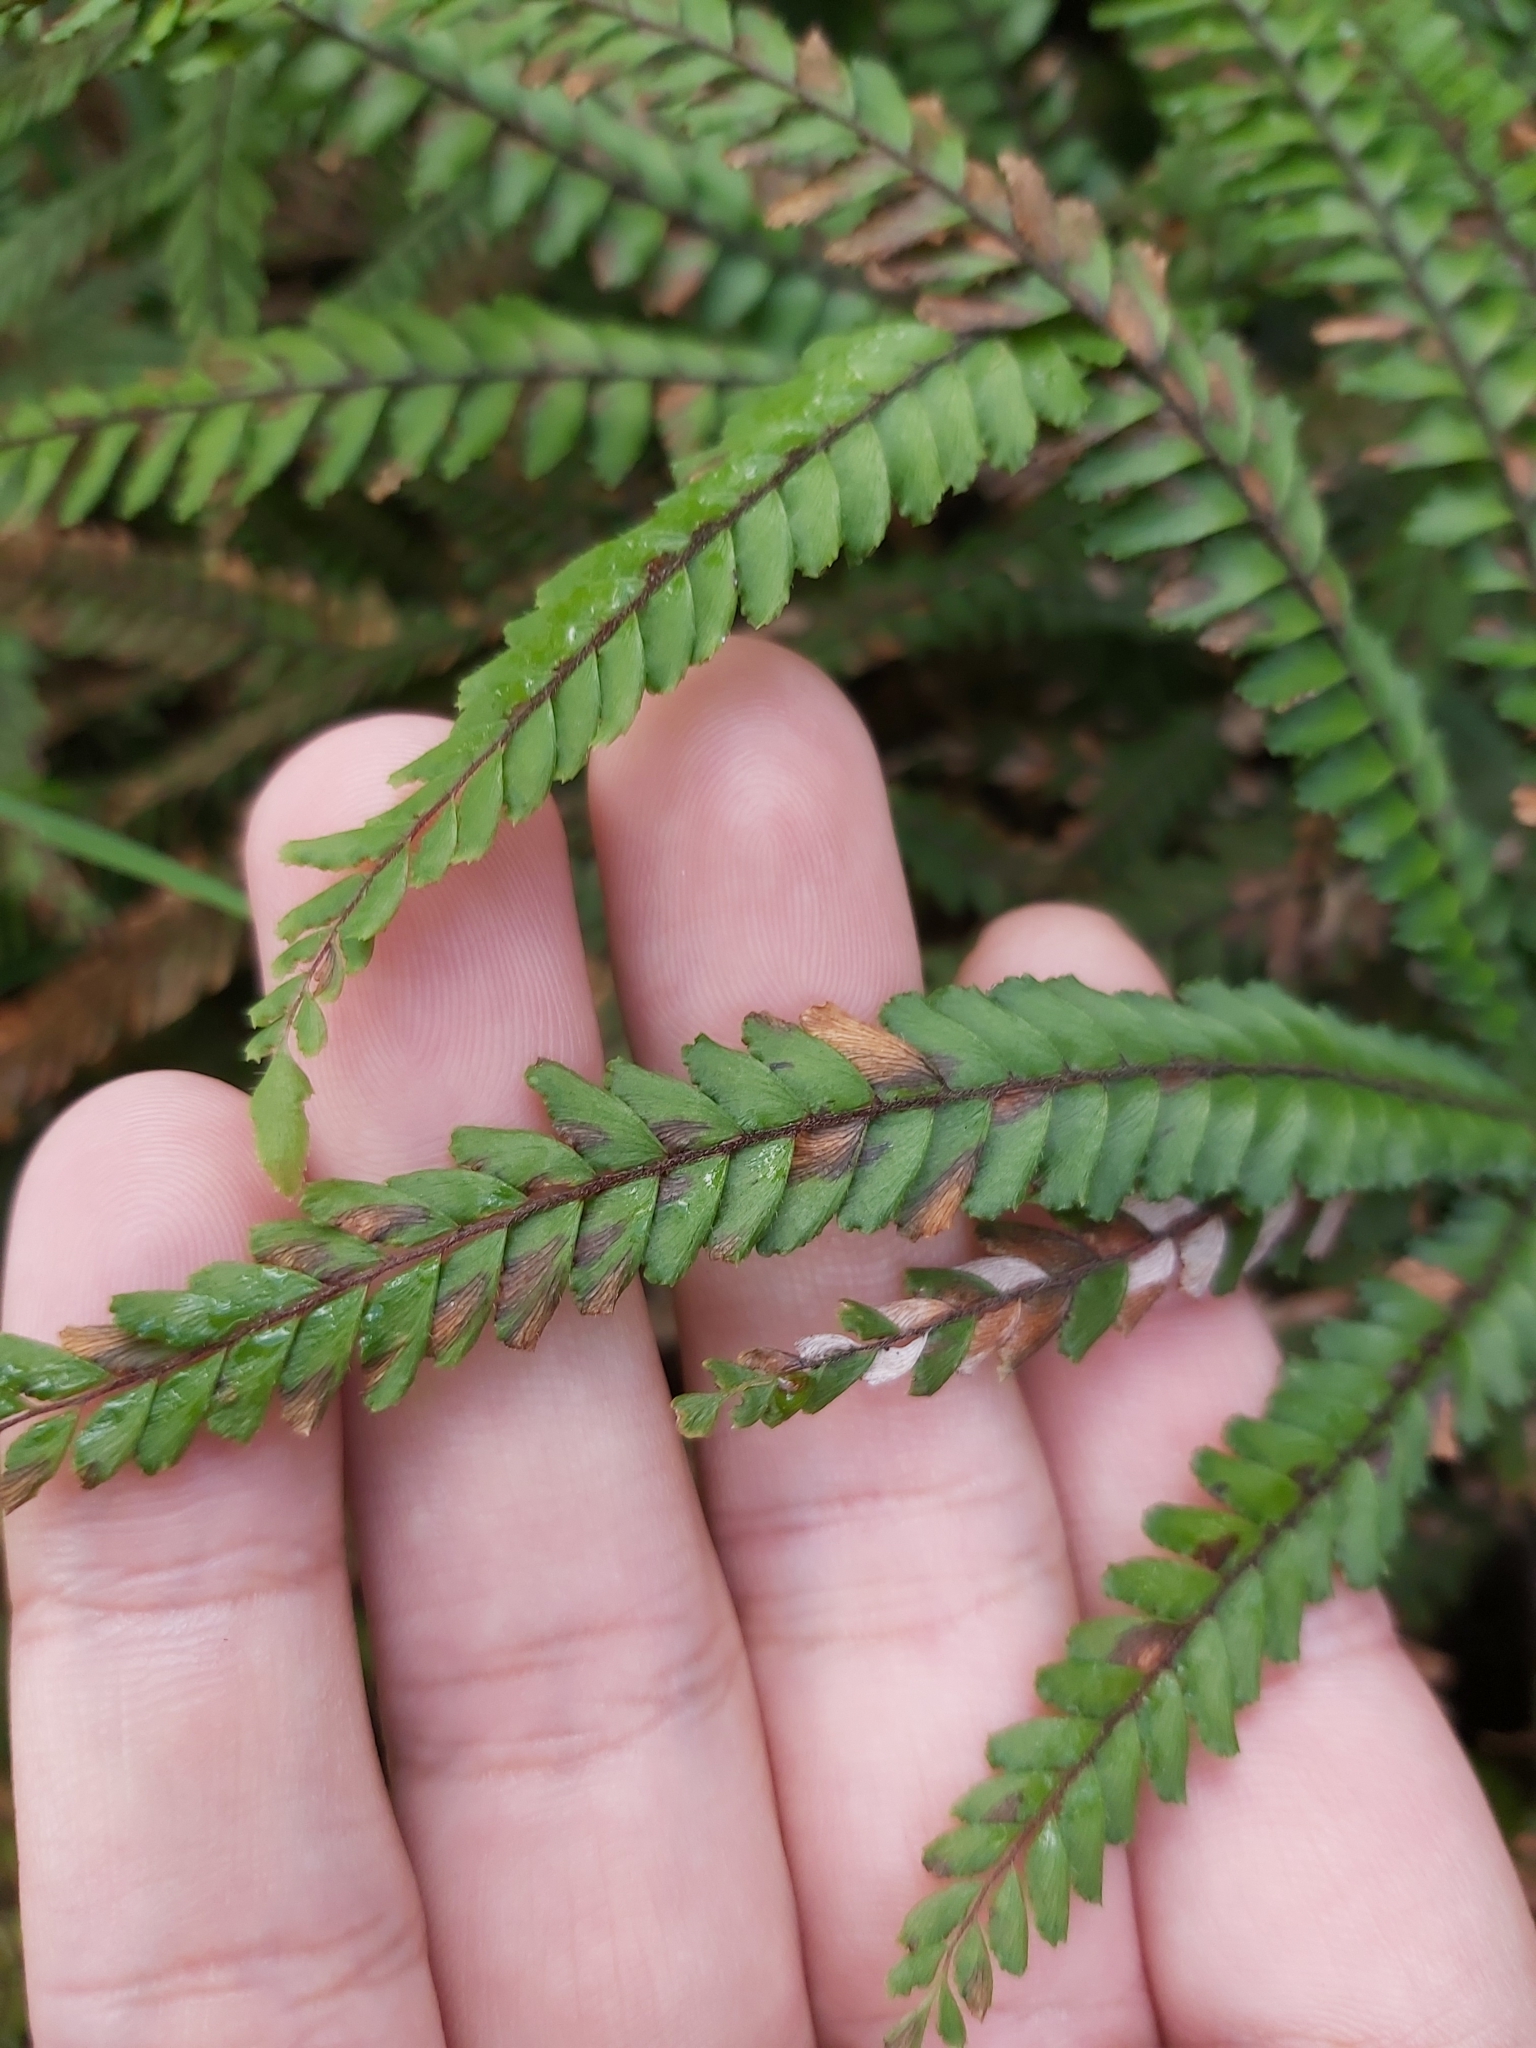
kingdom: Plantae
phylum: Tracheophyta
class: Polypodiopsida
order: Polypodiales
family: Pteridaceae
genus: Adiantum
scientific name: Adiantum hispidulum
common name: Rough maidenhair
